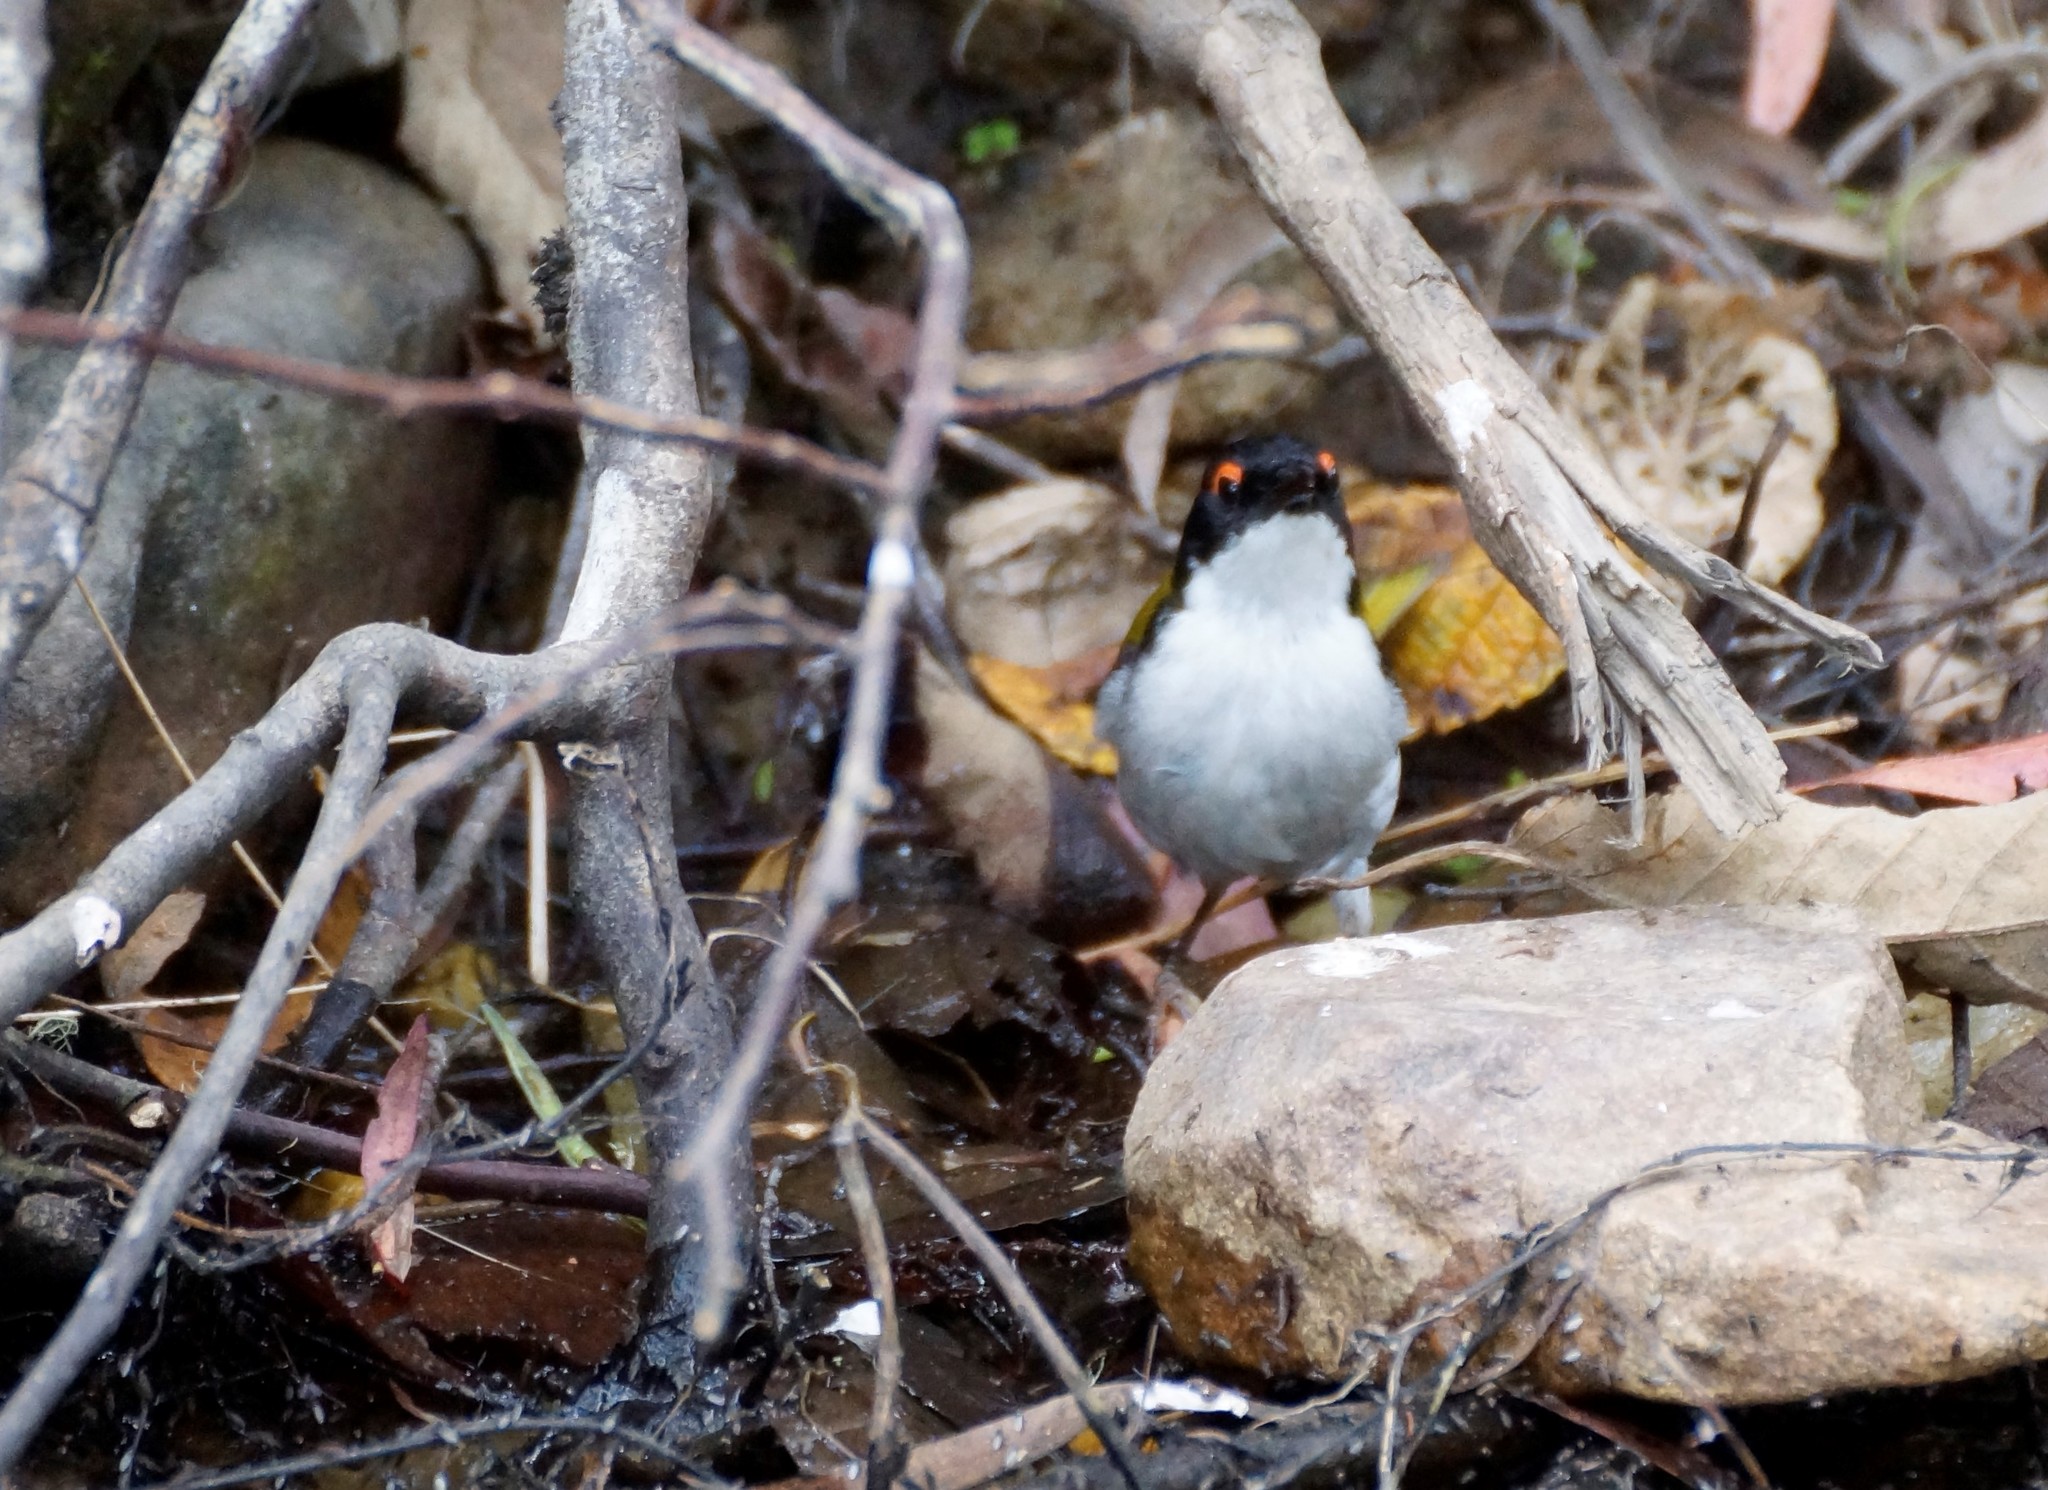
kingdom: Animalia
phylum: Chordata
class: Aves
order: Passeriformes
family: Meliphagidae
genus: Melithreptus
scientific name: Melithreptus lunatus
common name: White-naped honeyeater
